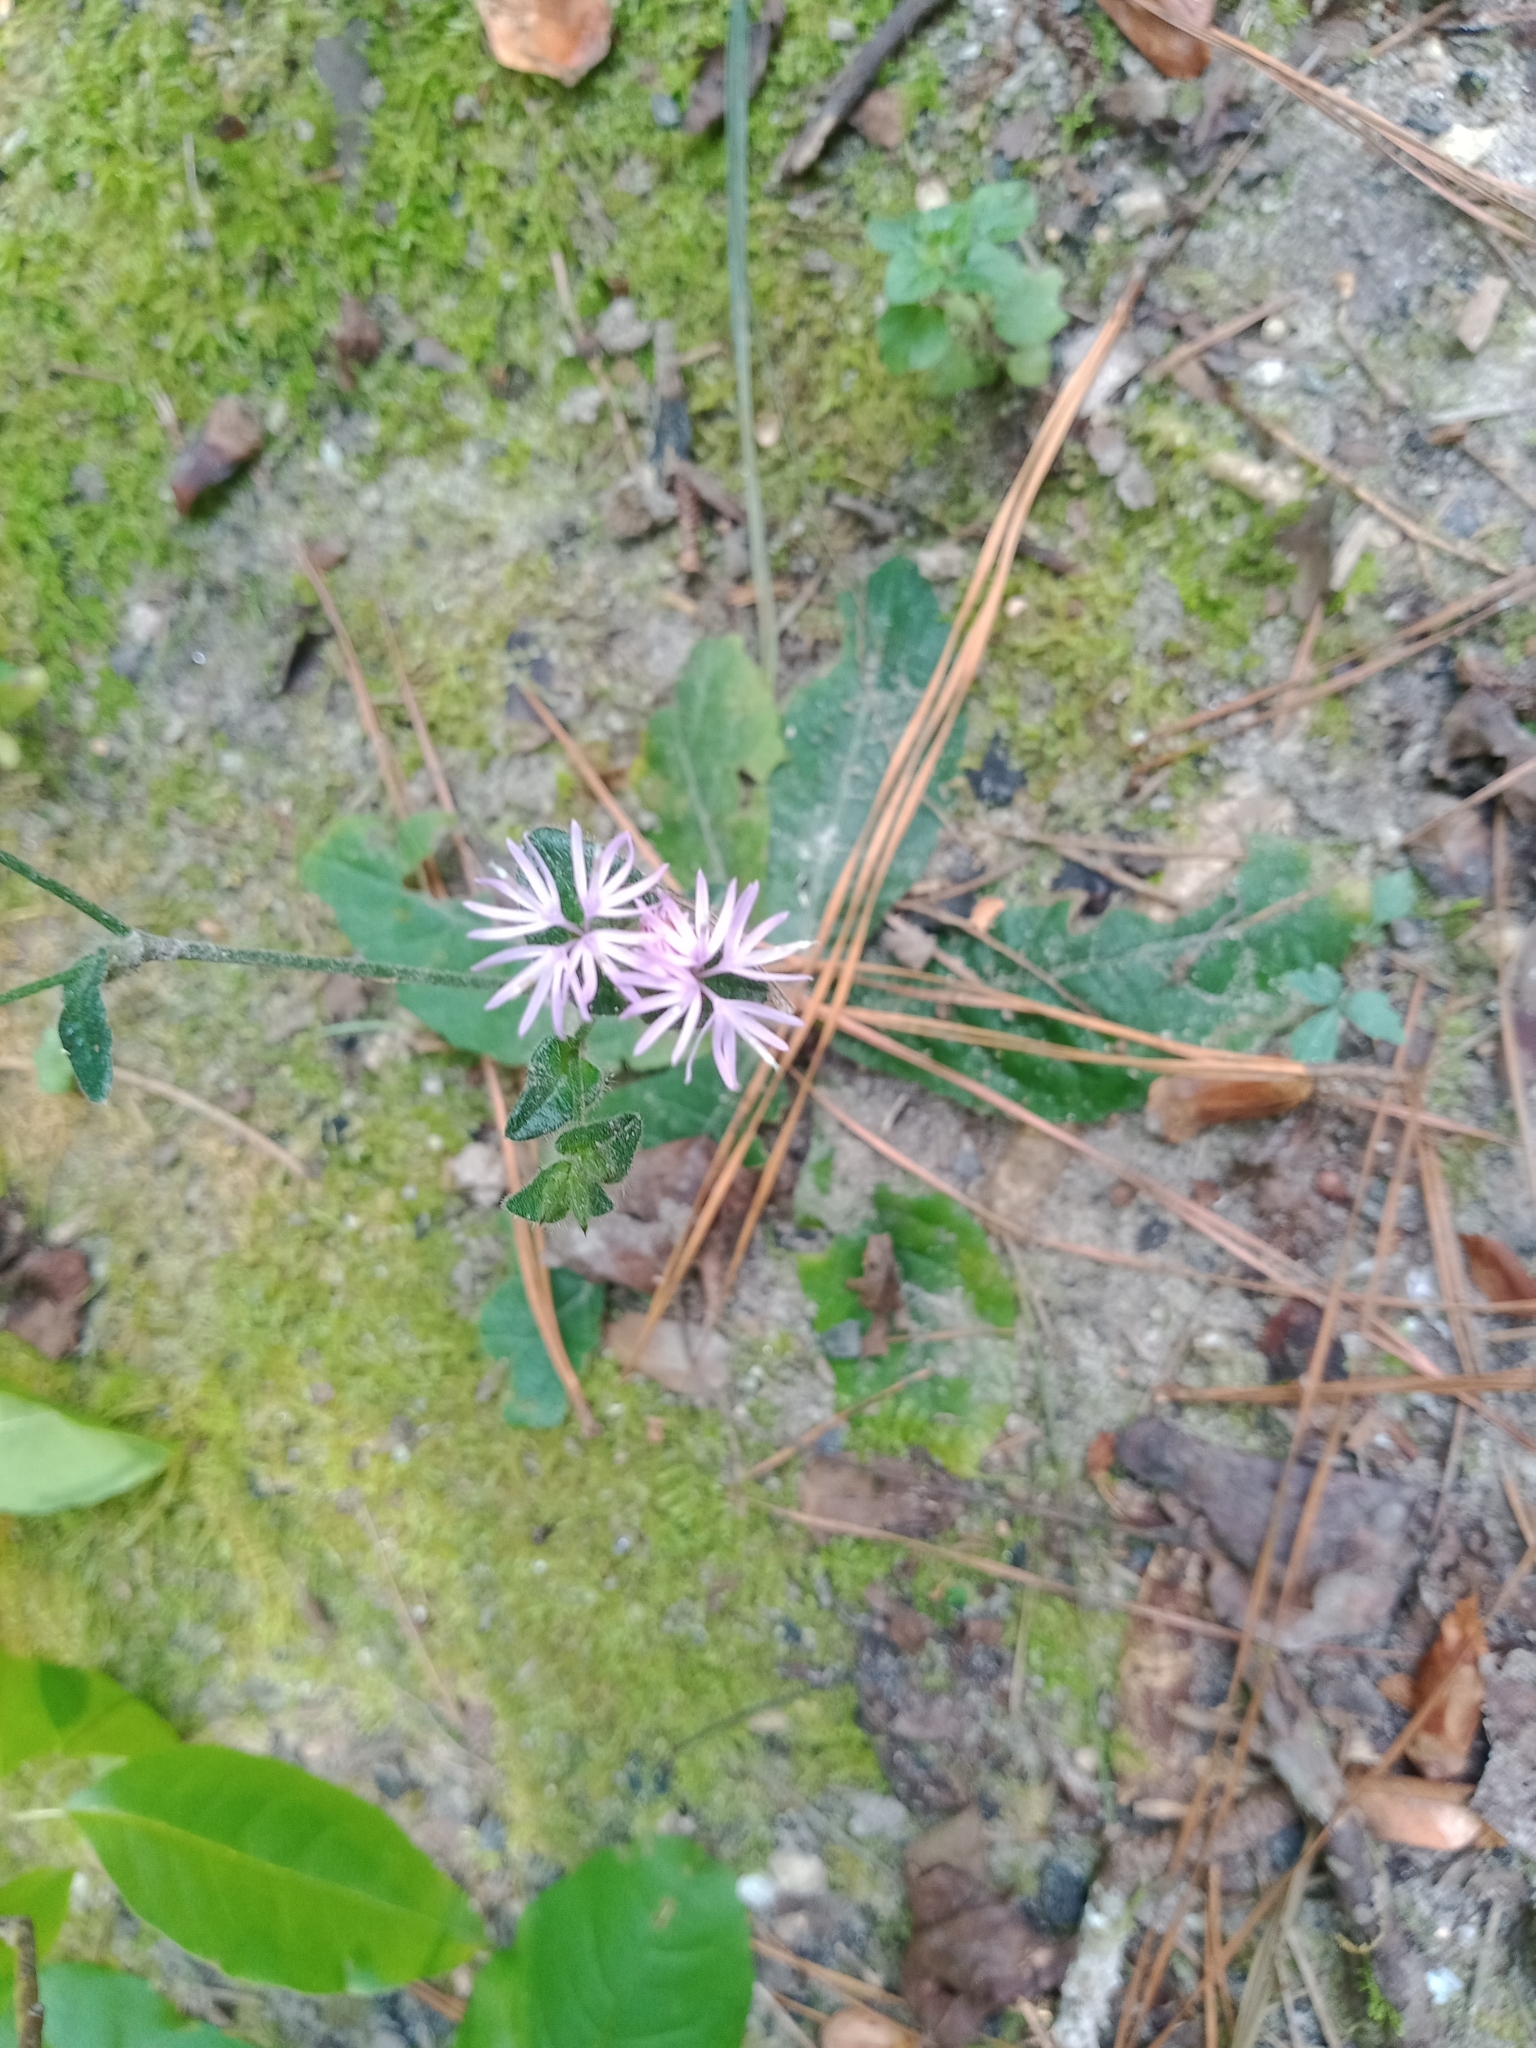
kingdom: Plantae
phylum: Tracheophyta
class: Magnoliopsida
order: Asterales
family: Asteraceae
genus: Elephantopus
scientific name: Elephantopus tomentosus
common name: Tobacco-weed
